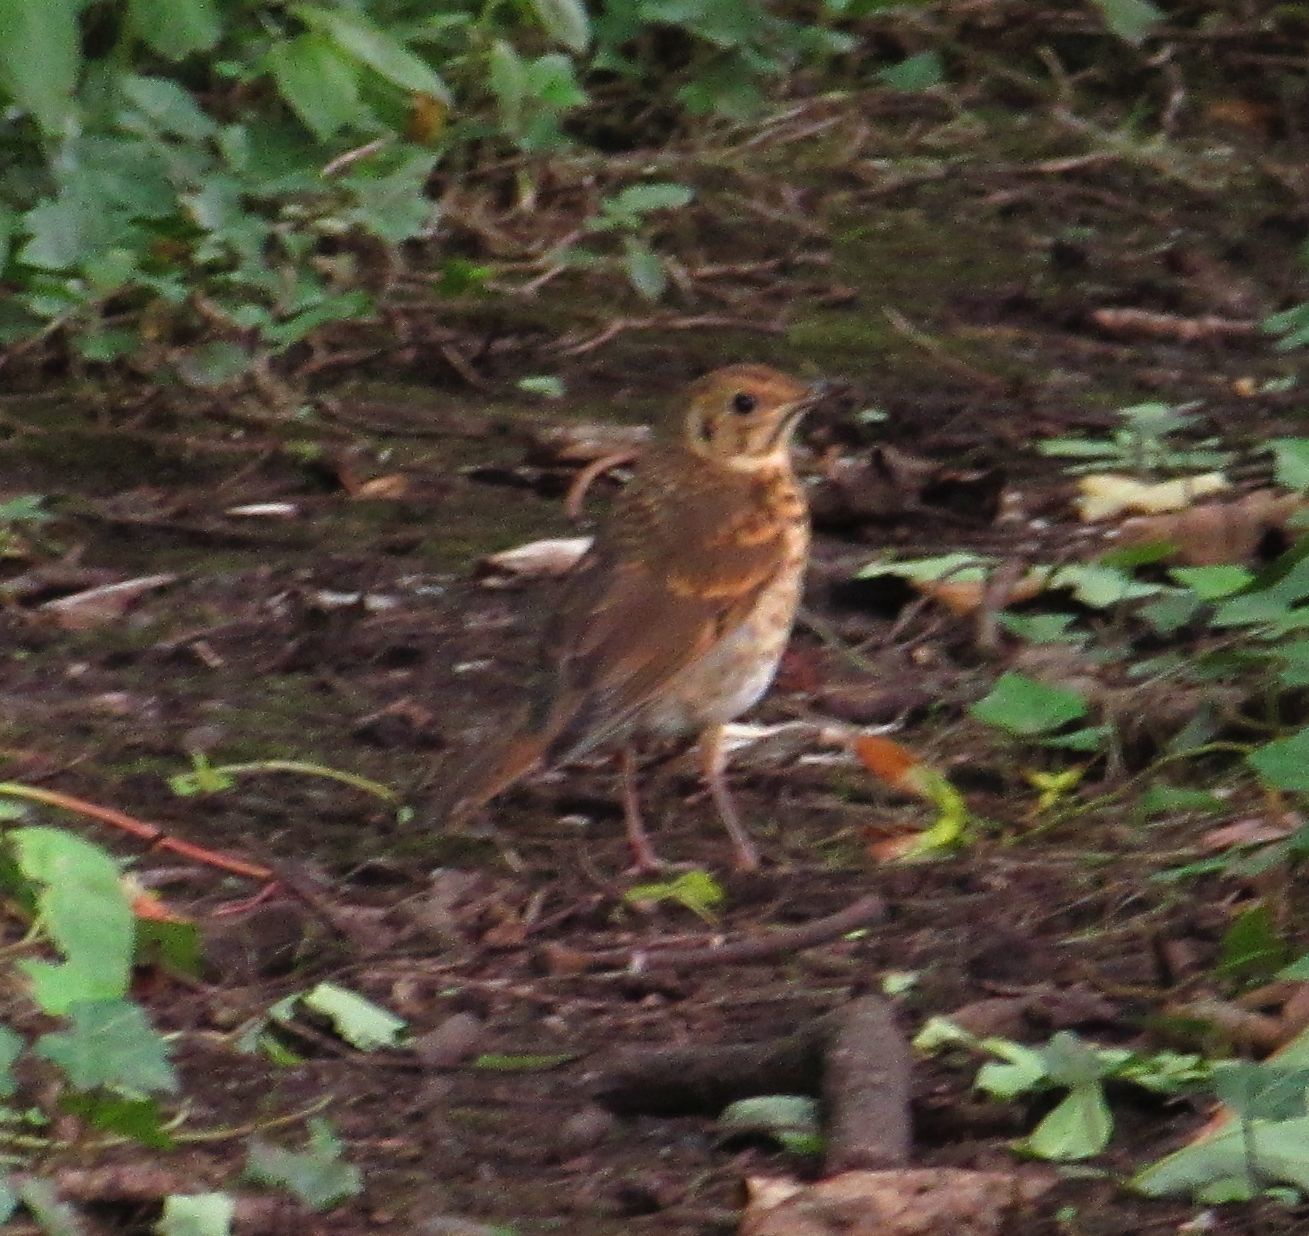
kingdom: Animalia
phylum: Chordata
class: Aves
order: Passeriformes
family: Turdidae
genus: Turdus
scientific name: Turdus philomelos
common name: Song thrush
